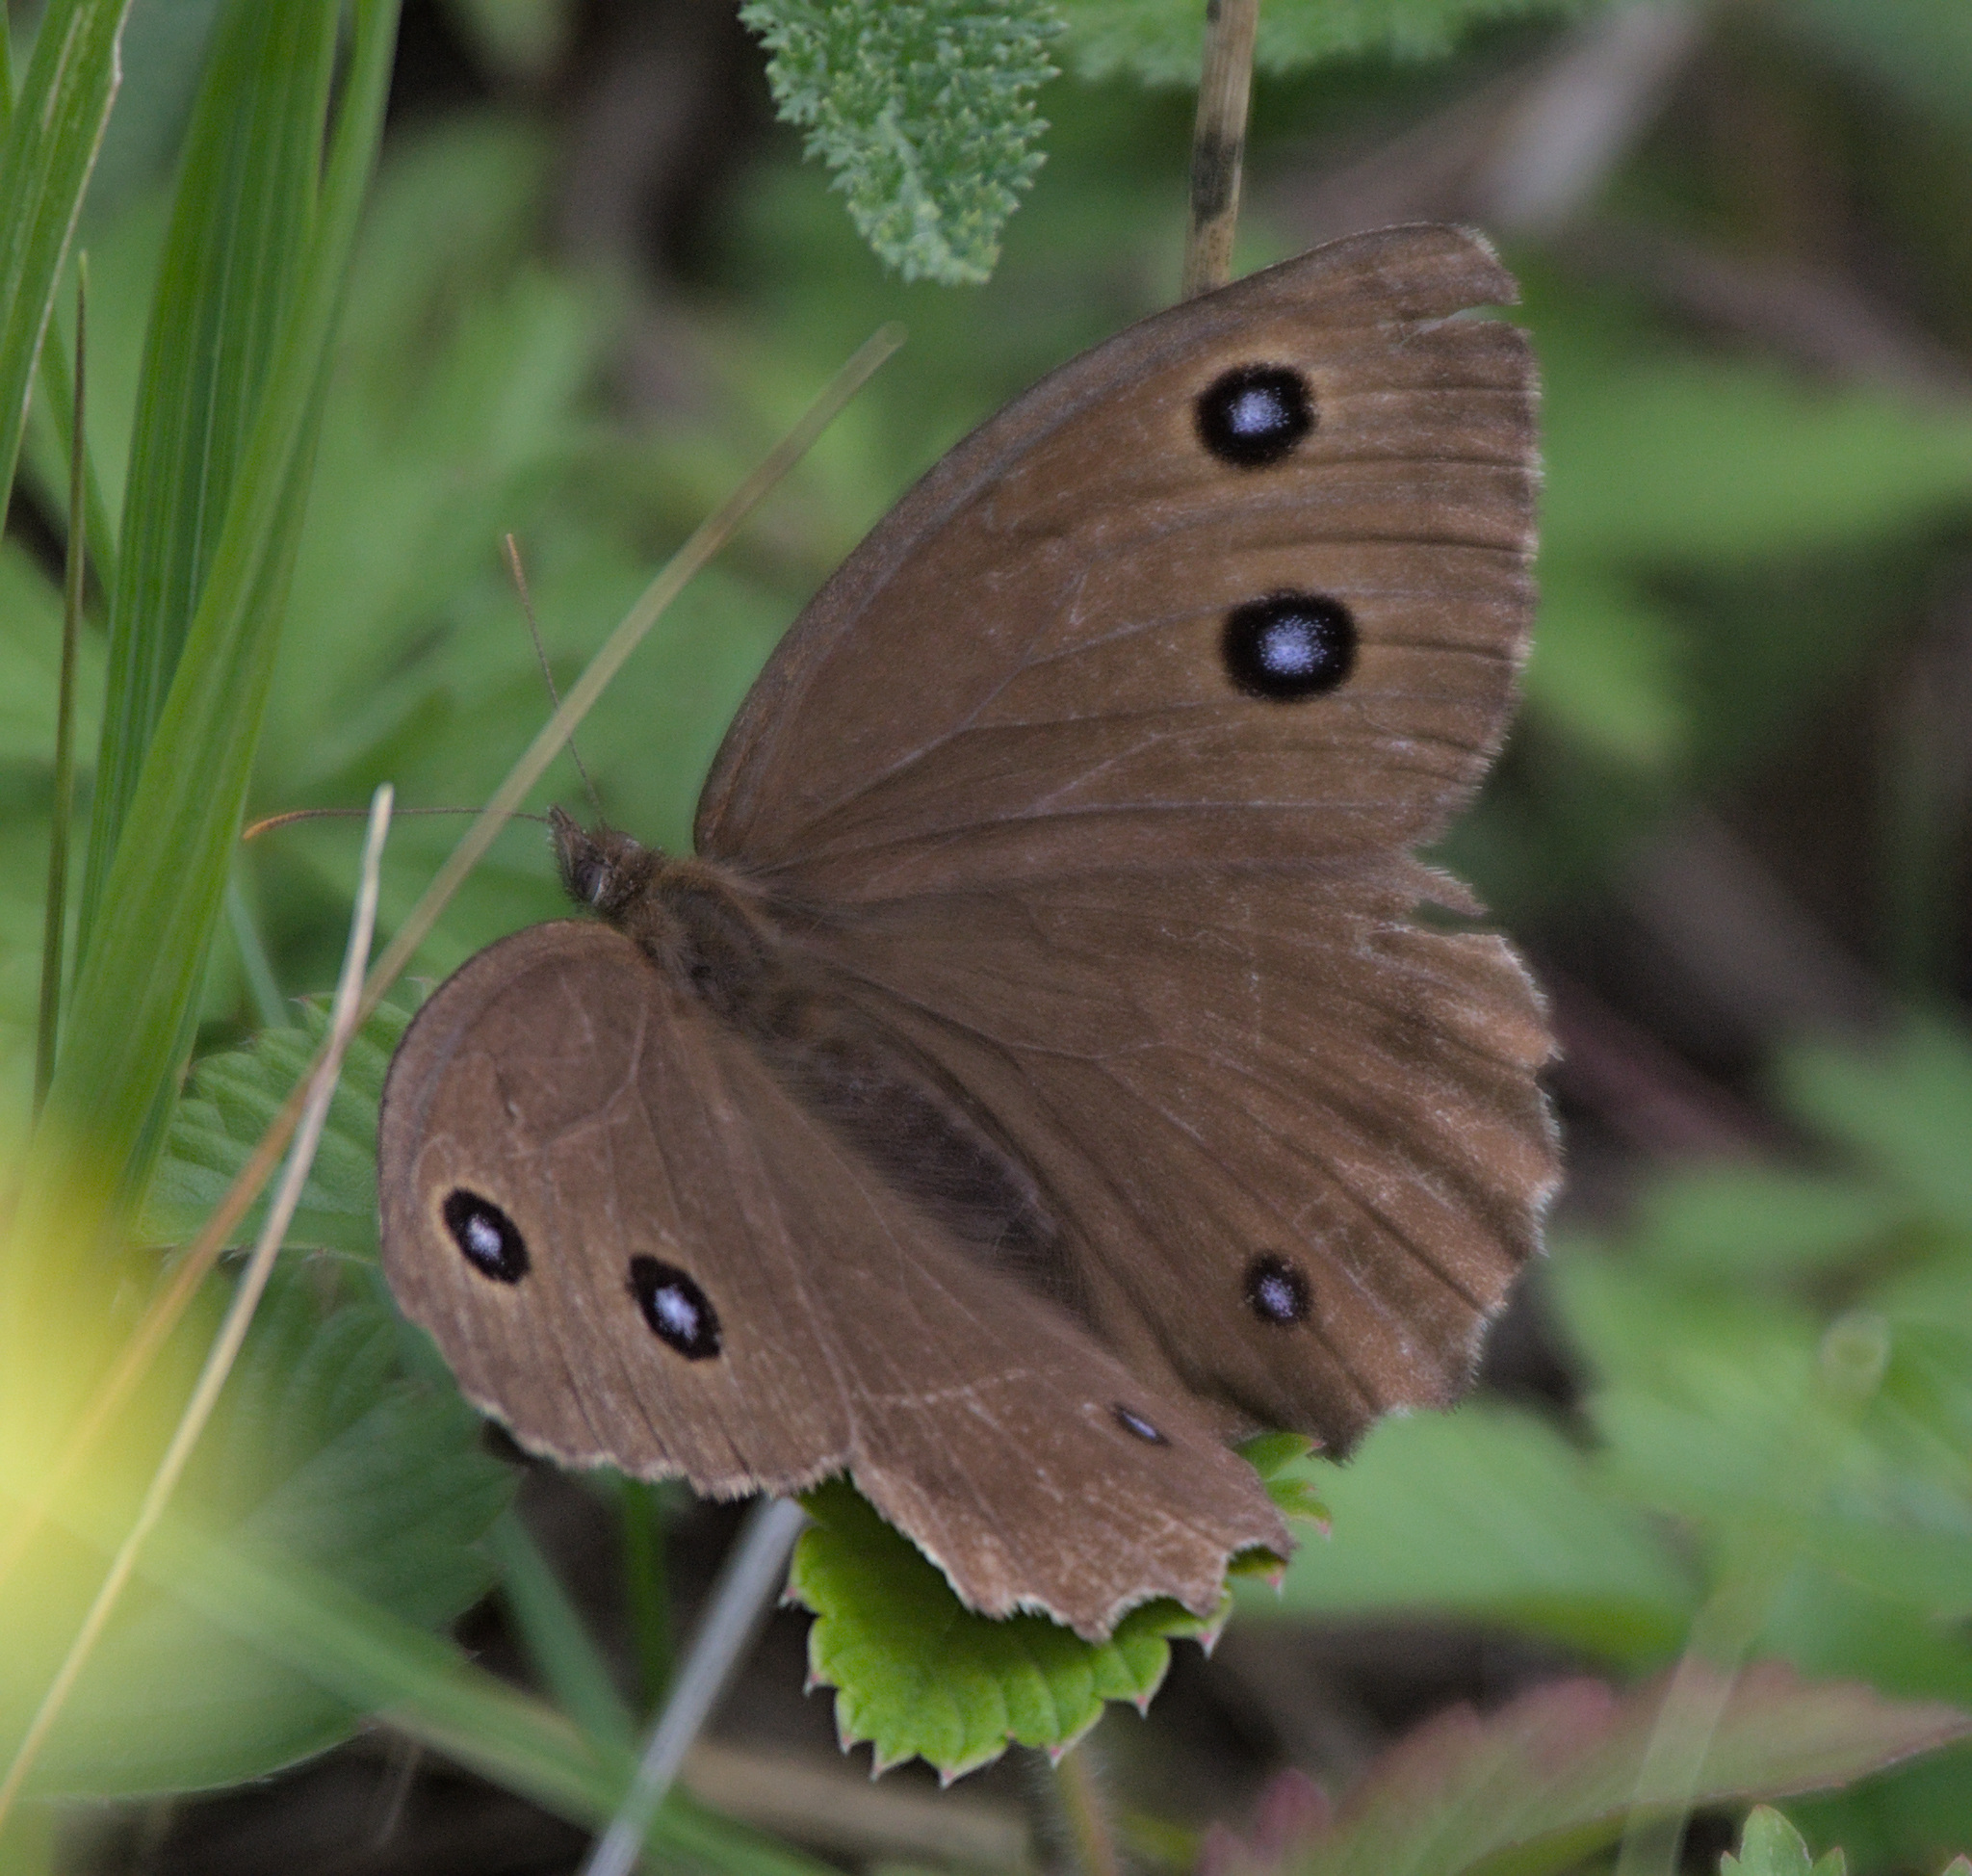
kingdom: Animalia
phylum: Arthropoda
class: Insecta
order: Lepidoptera
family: Nymphalidae
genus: Minois
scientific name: Minois dryas
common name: Dryad
